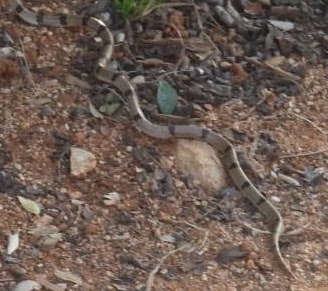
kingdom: Animalia
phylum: Chordata
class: Squamata
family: Colubridae
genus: Oligodon
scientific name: Oligodon arnensis
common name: Banded kukri
